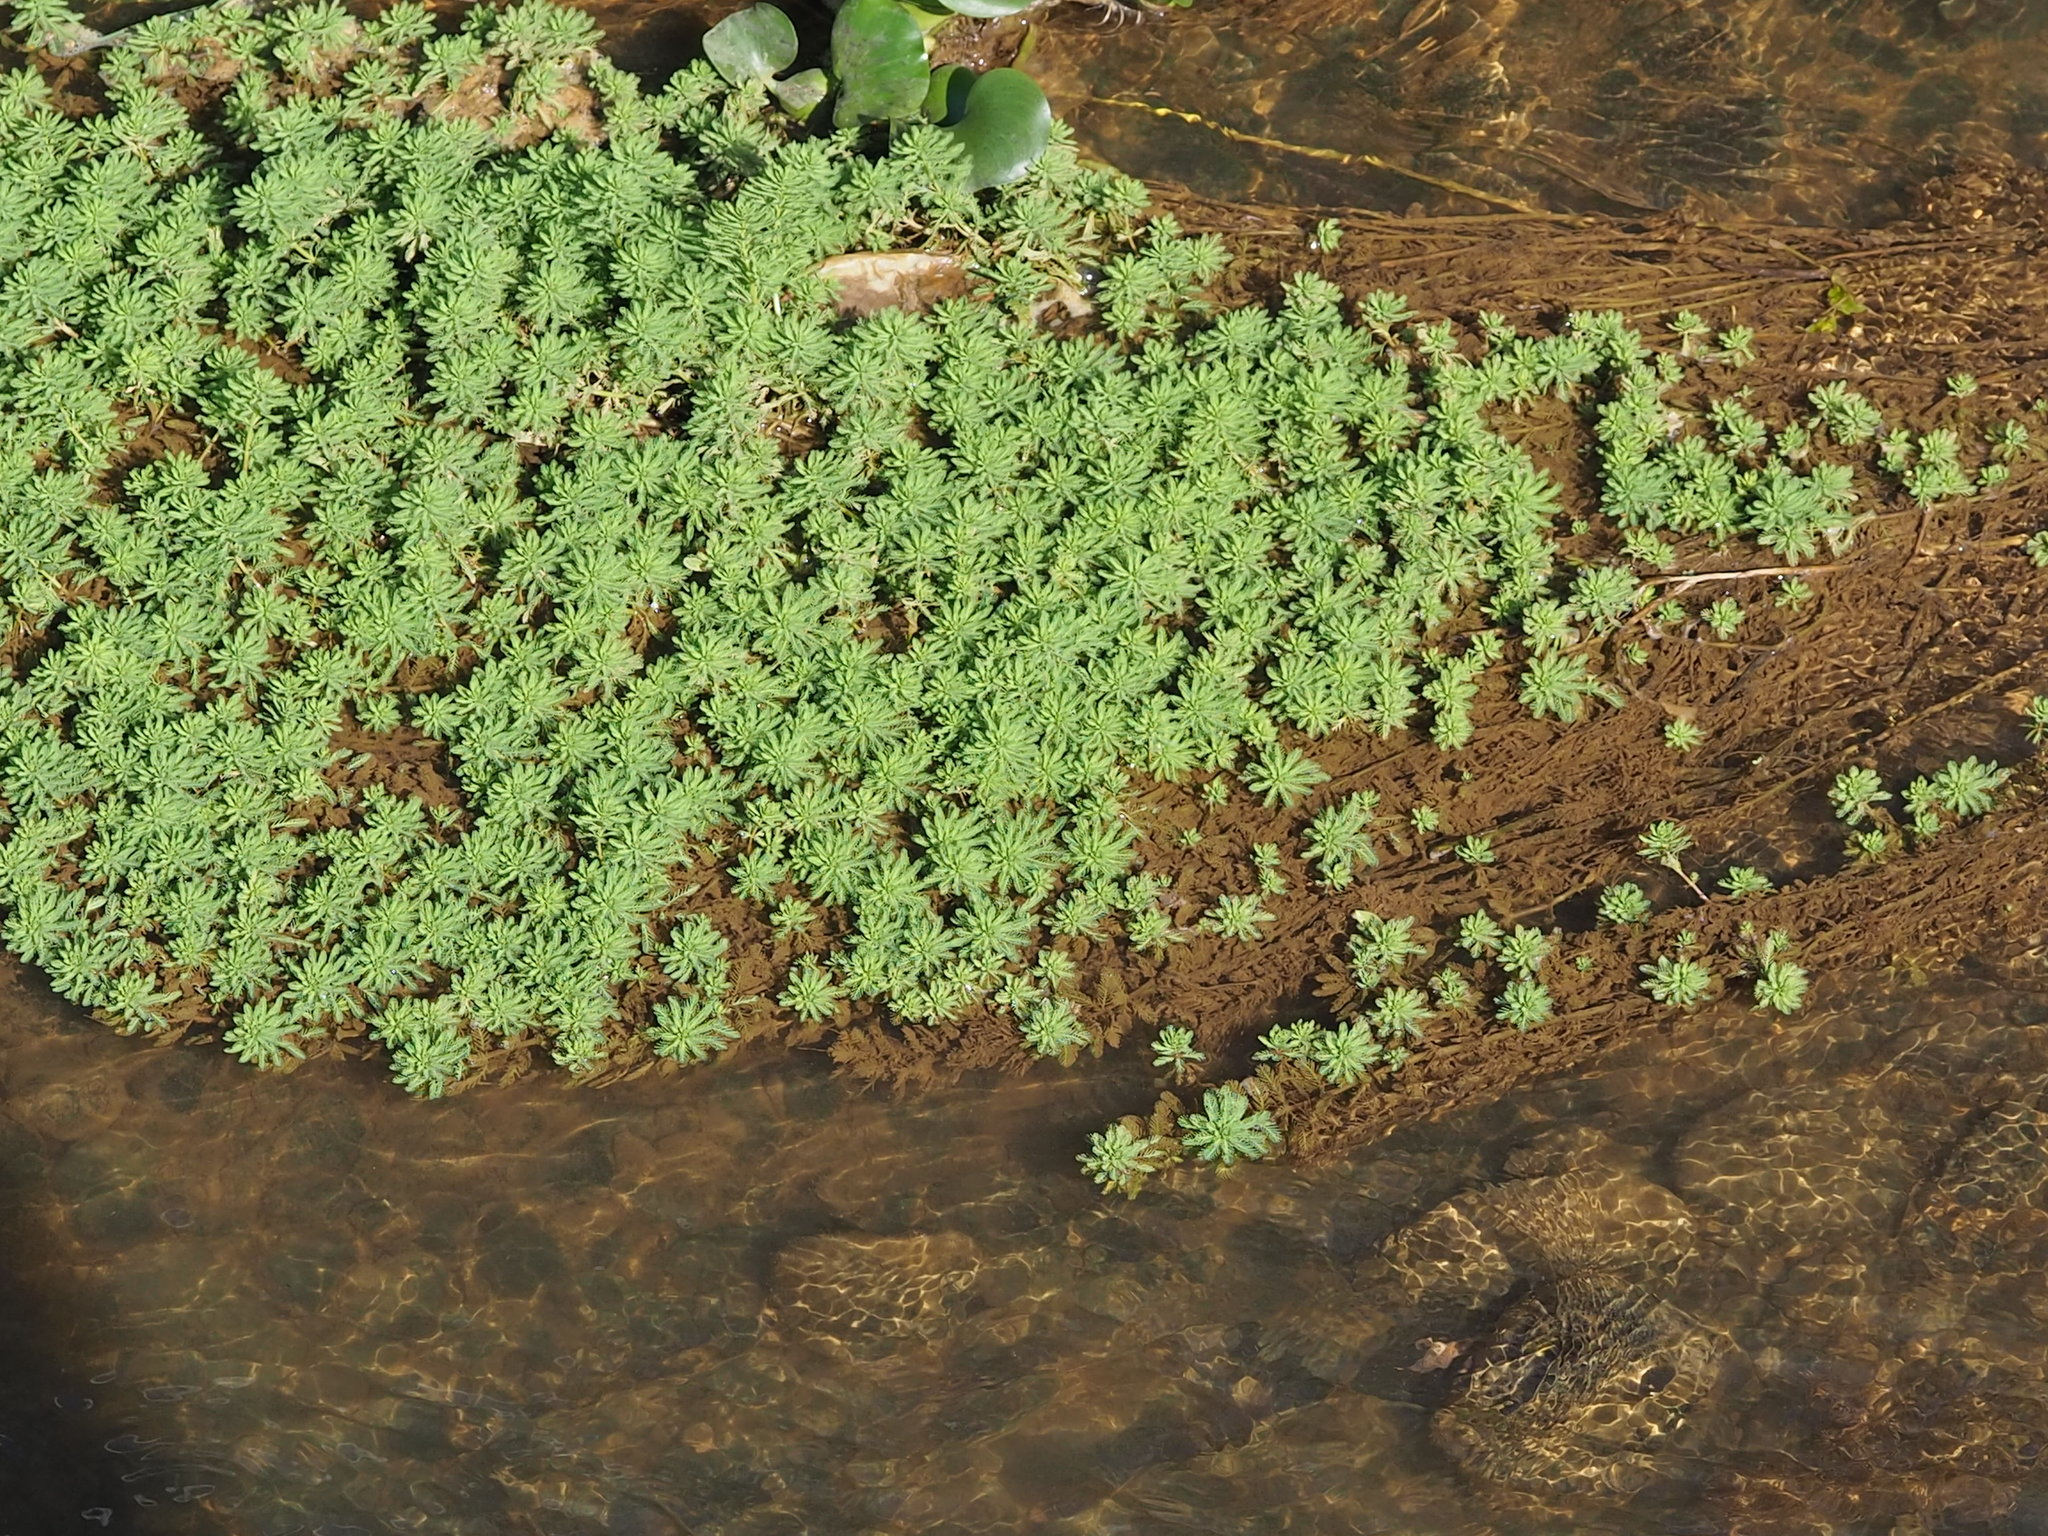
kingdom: Plantae
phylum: Tracheophyta
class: Magnoliopsida
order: Saxifragales
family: Haloragaceae
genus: Myriophyllum
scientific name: Myriophyllum aquaticum
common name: Parrot's feather
